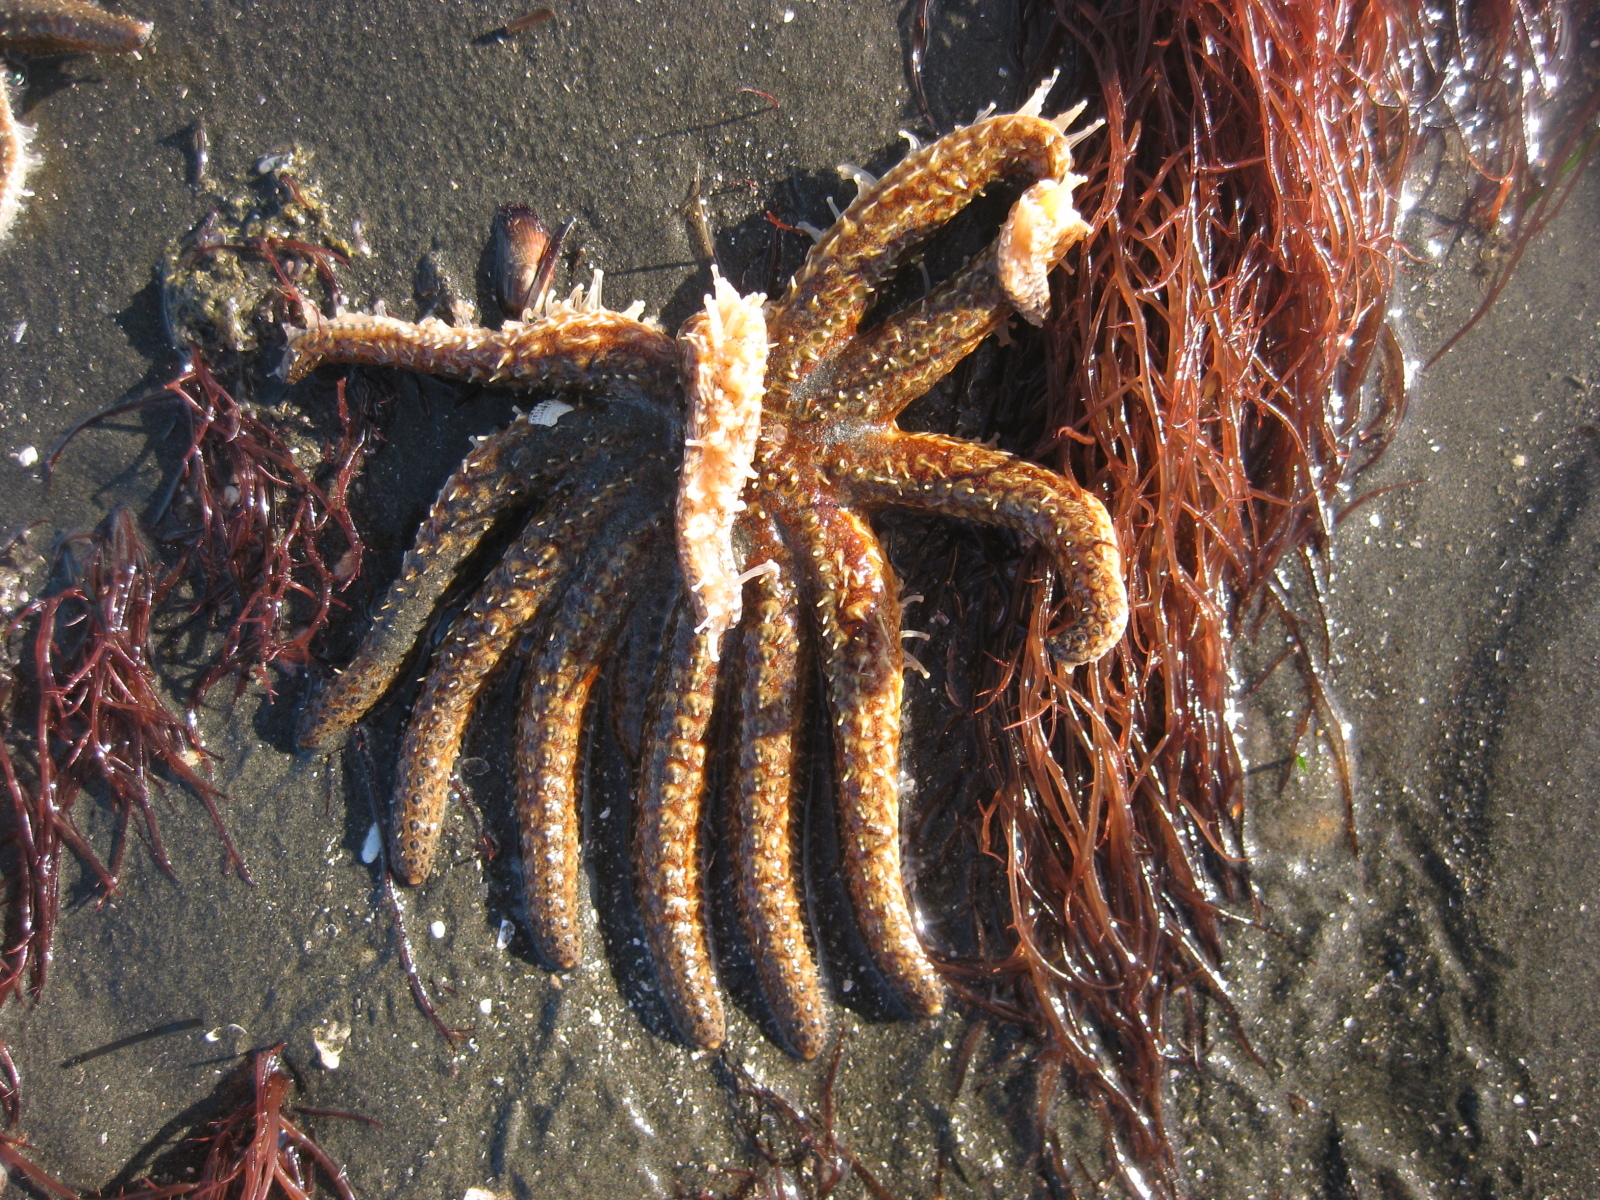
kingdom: Animalia
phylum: Echinodermata
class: Asteroidea
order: Forcipulatida
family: Asteriidae
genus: Coscinasterias
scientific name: Coscinasterias muricata
